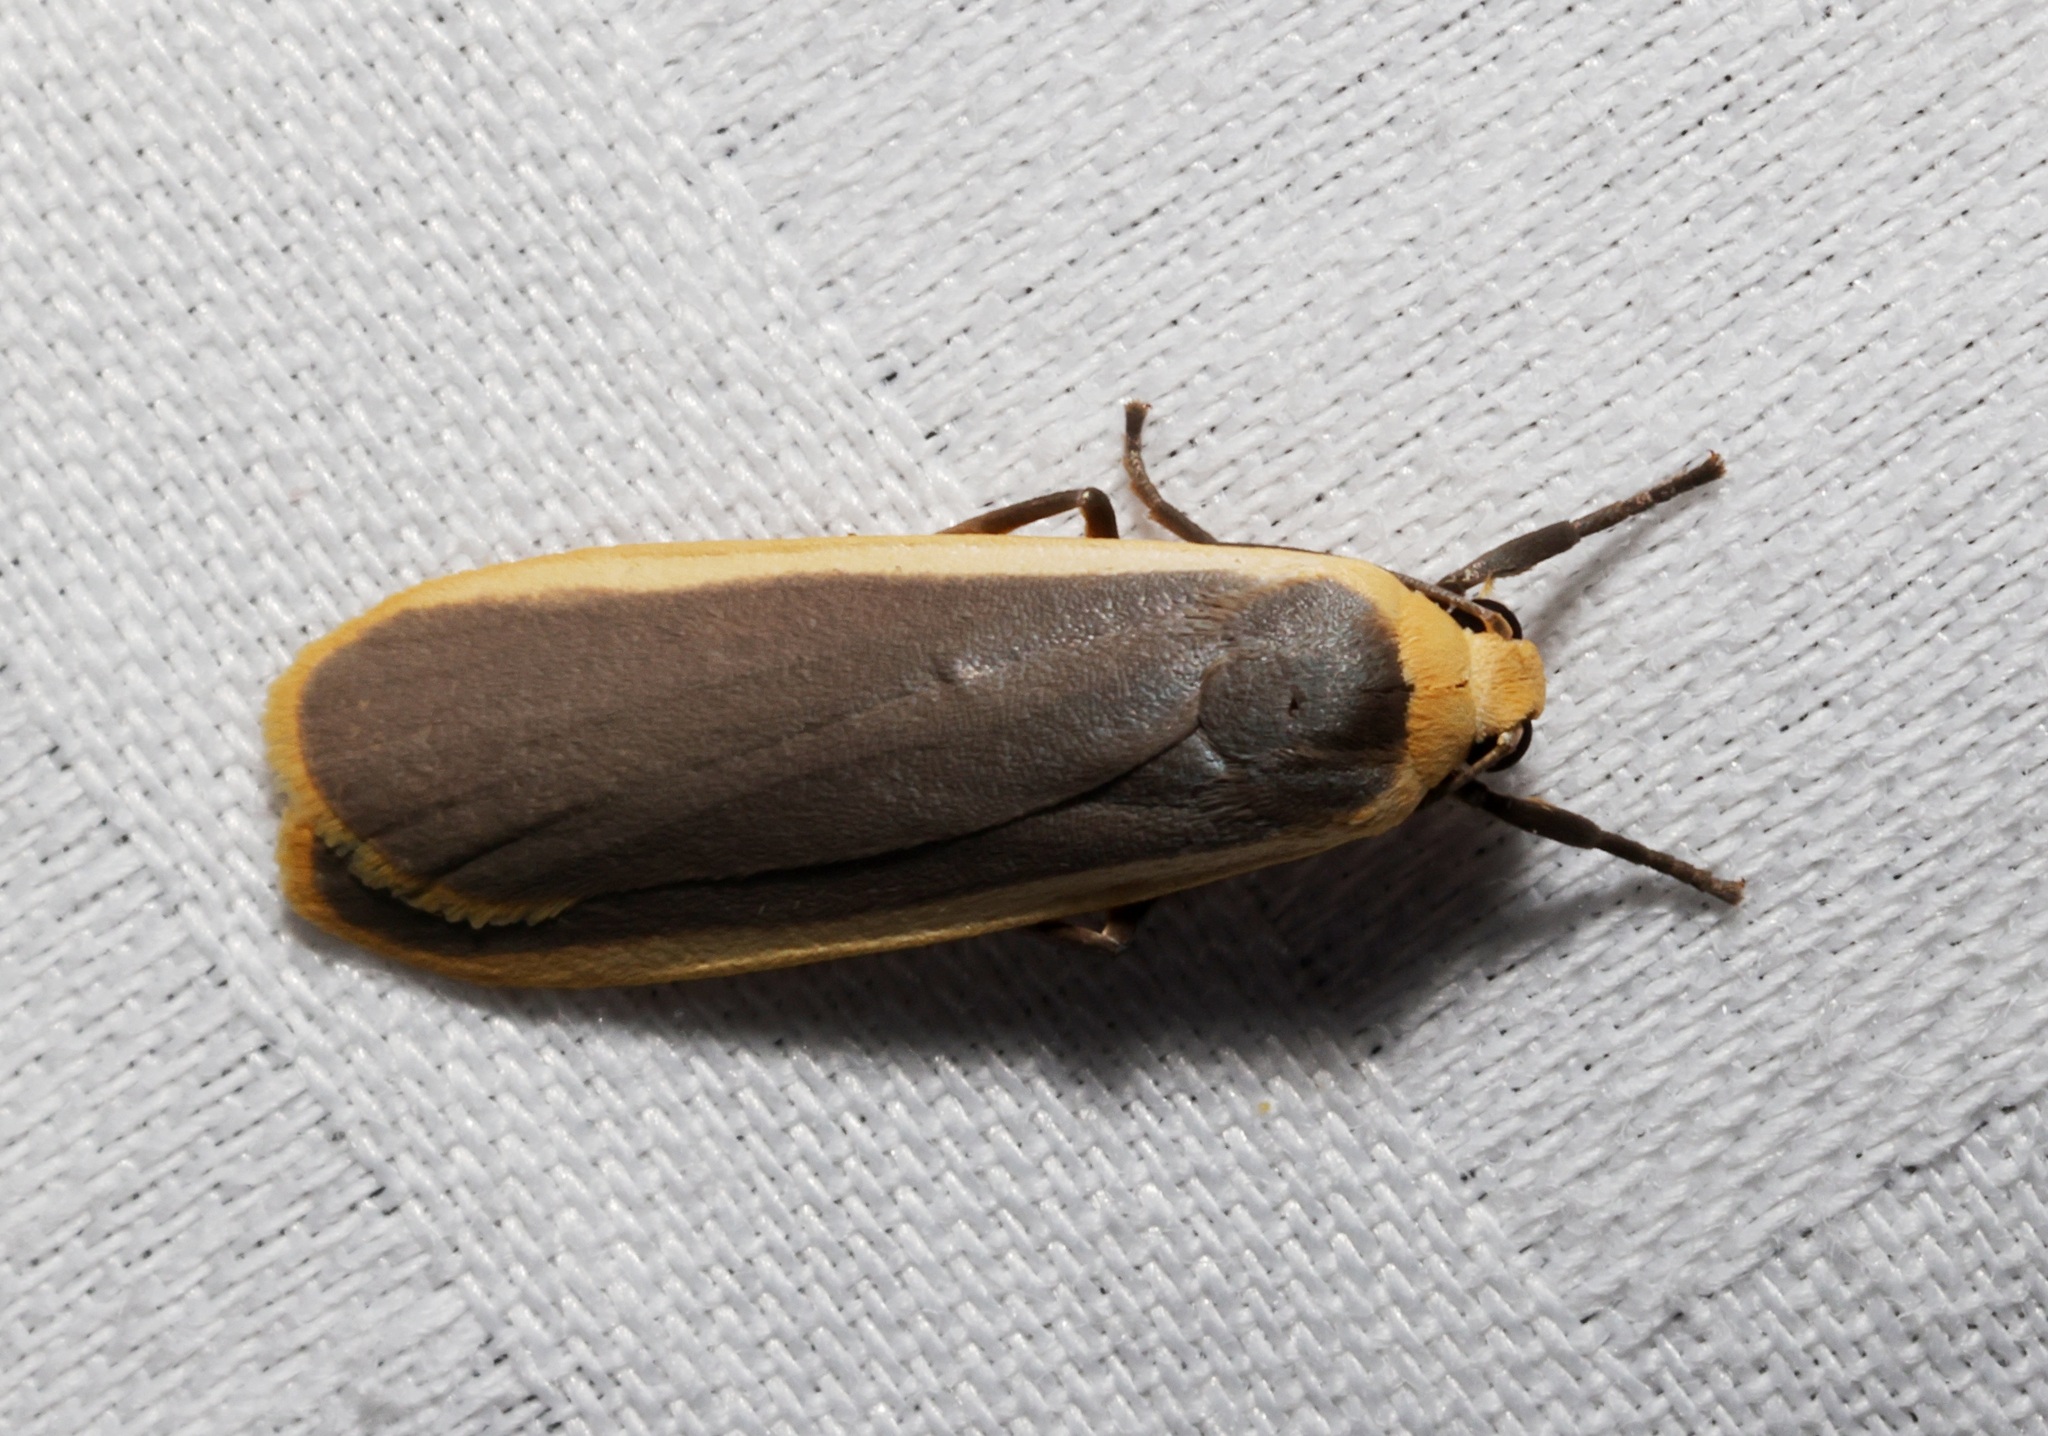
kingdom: Animalia
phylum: Arthropoda
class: Insecta
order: Lepidoptera
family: Erebidae
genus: Brunia
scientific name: Brunia antica
